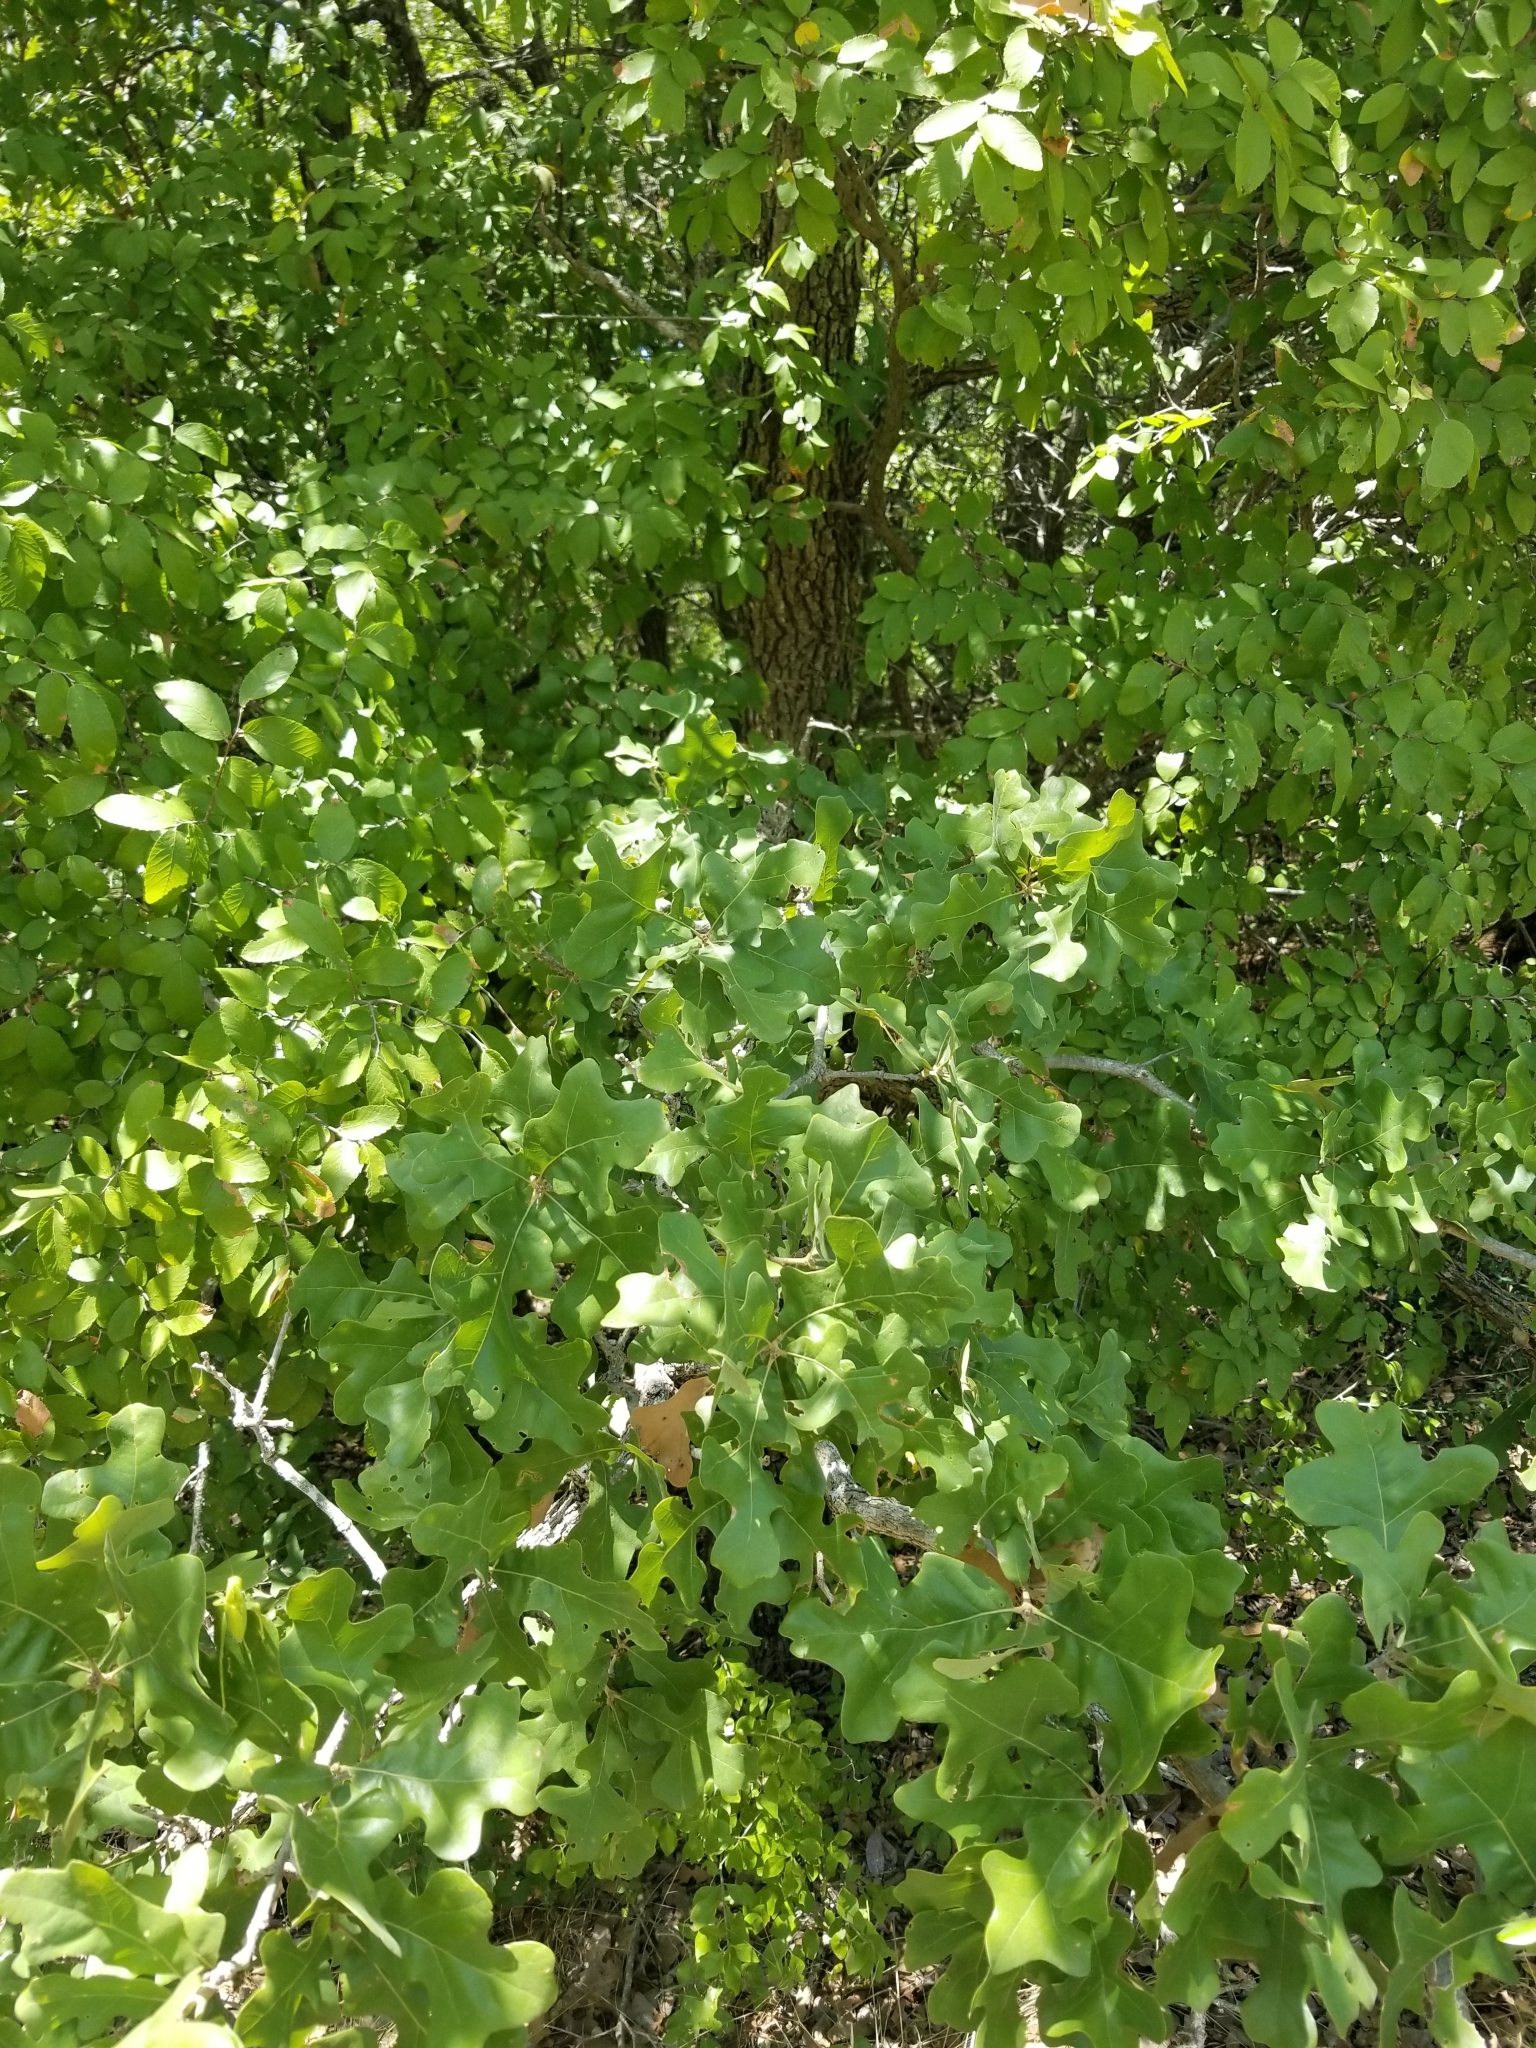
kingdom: Plantae
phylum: Tracheophyta
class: Magnoliopsida
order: Fagales
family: Fagaceae
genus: Quercus
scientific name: Quercus stellata
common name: Post oak
